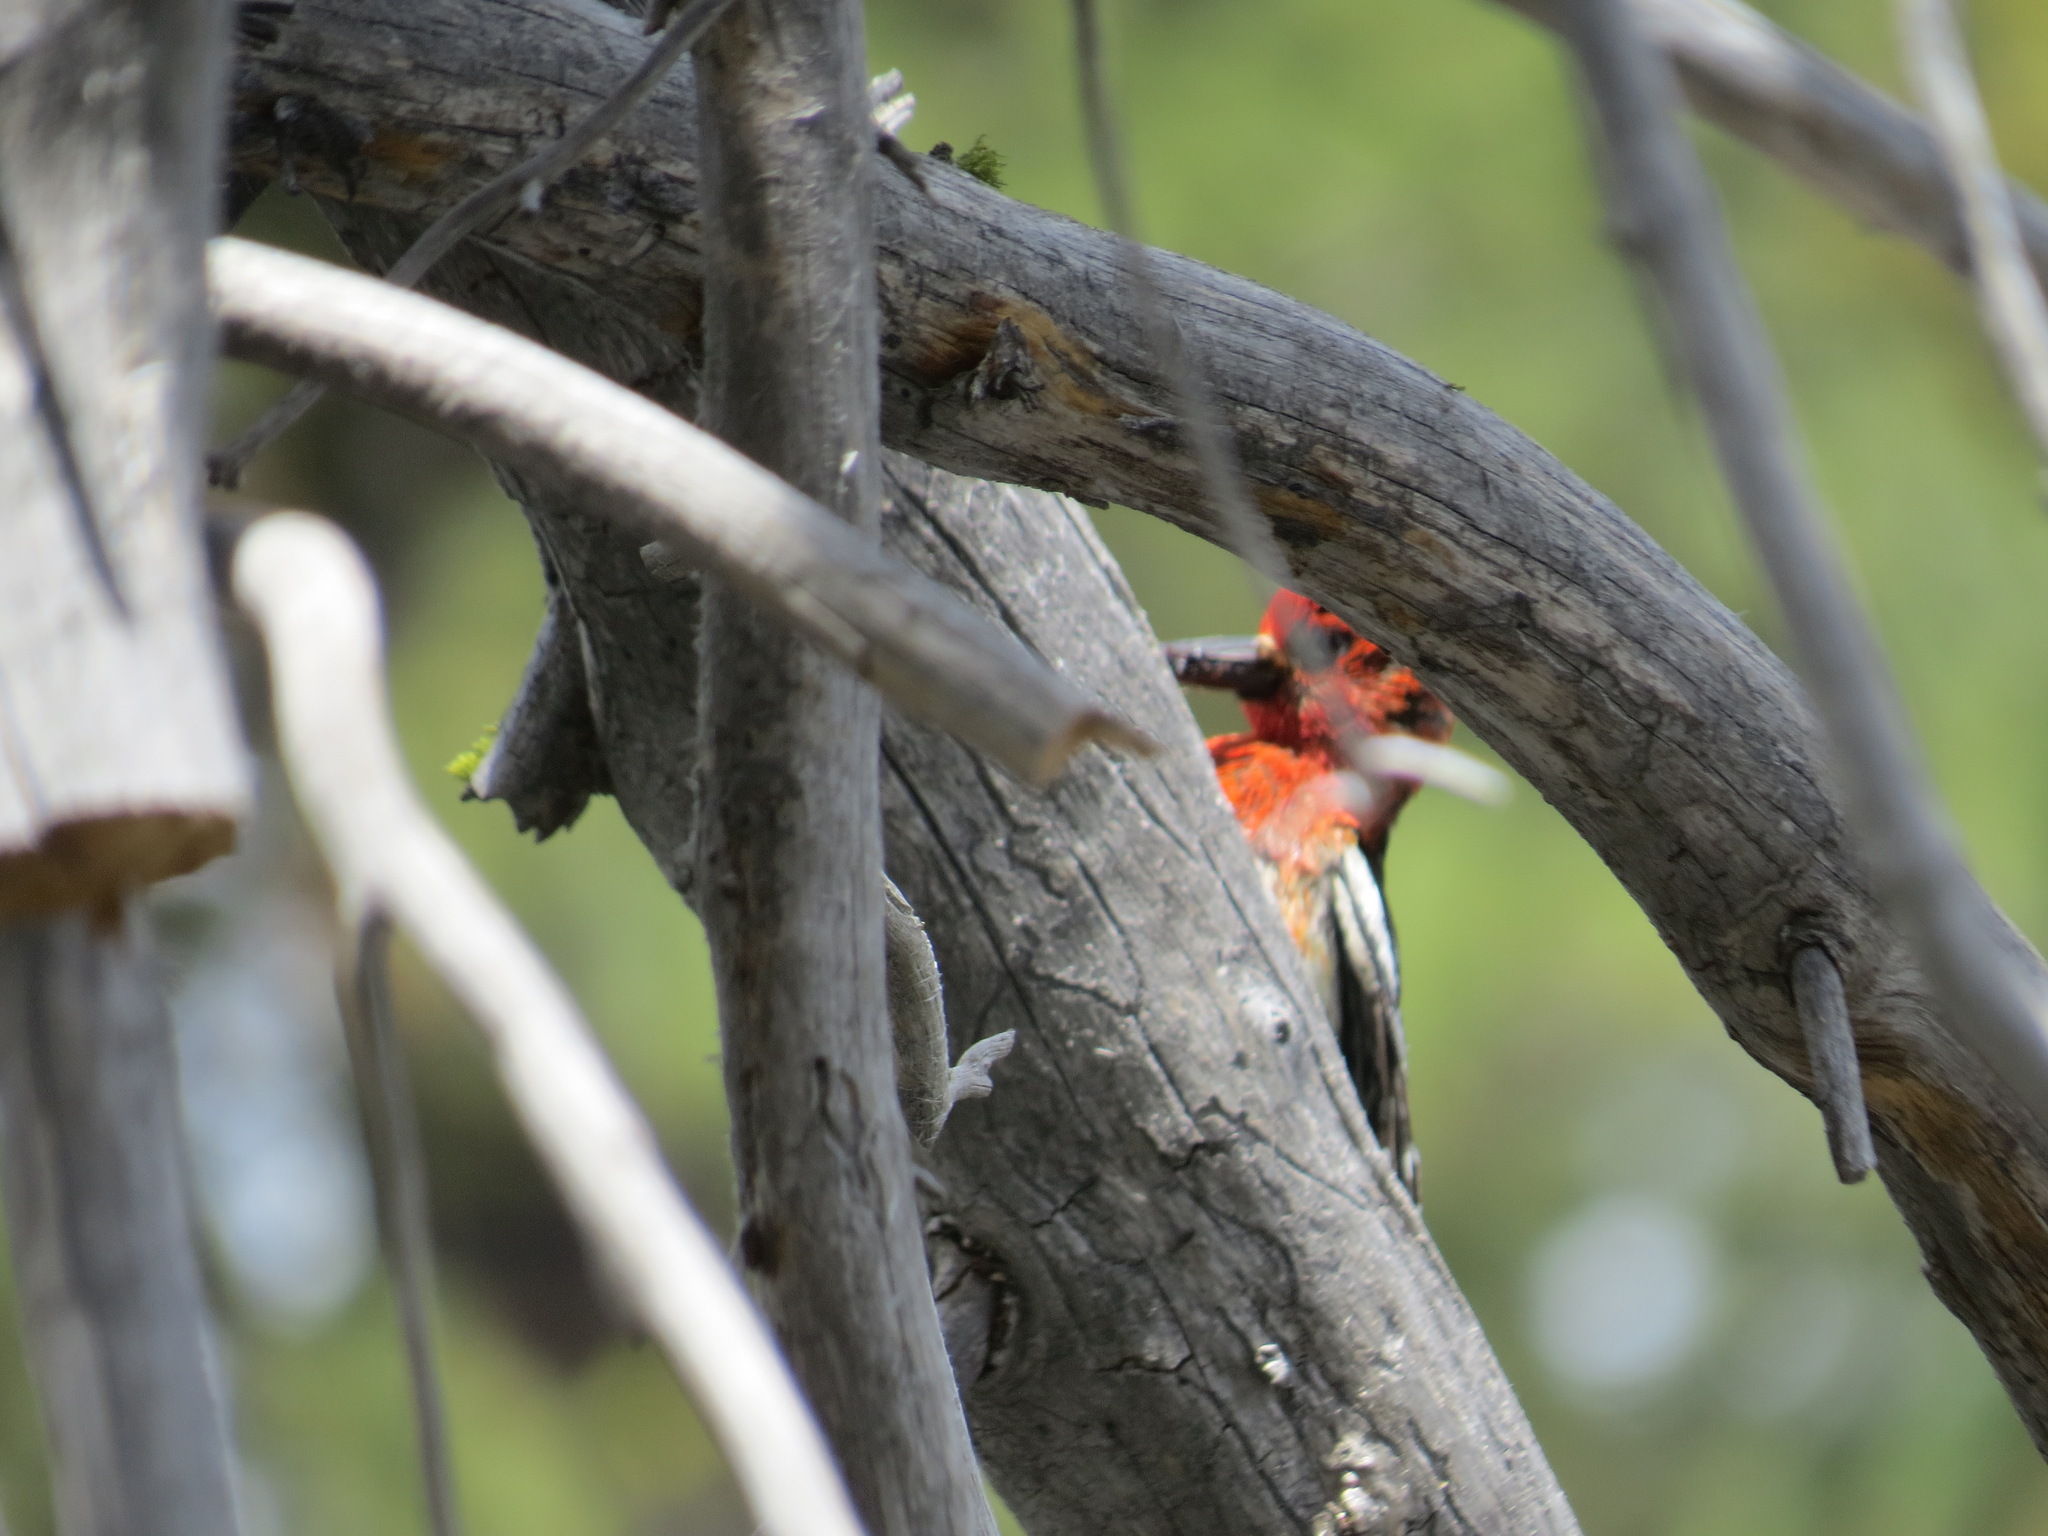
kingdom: Animalia
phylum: Chordata
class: Aves
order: Piciformes
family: Picidae
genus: Sphyrapicus
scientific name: Sphyrapicus ruber
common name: Red-breasted sapsucker
